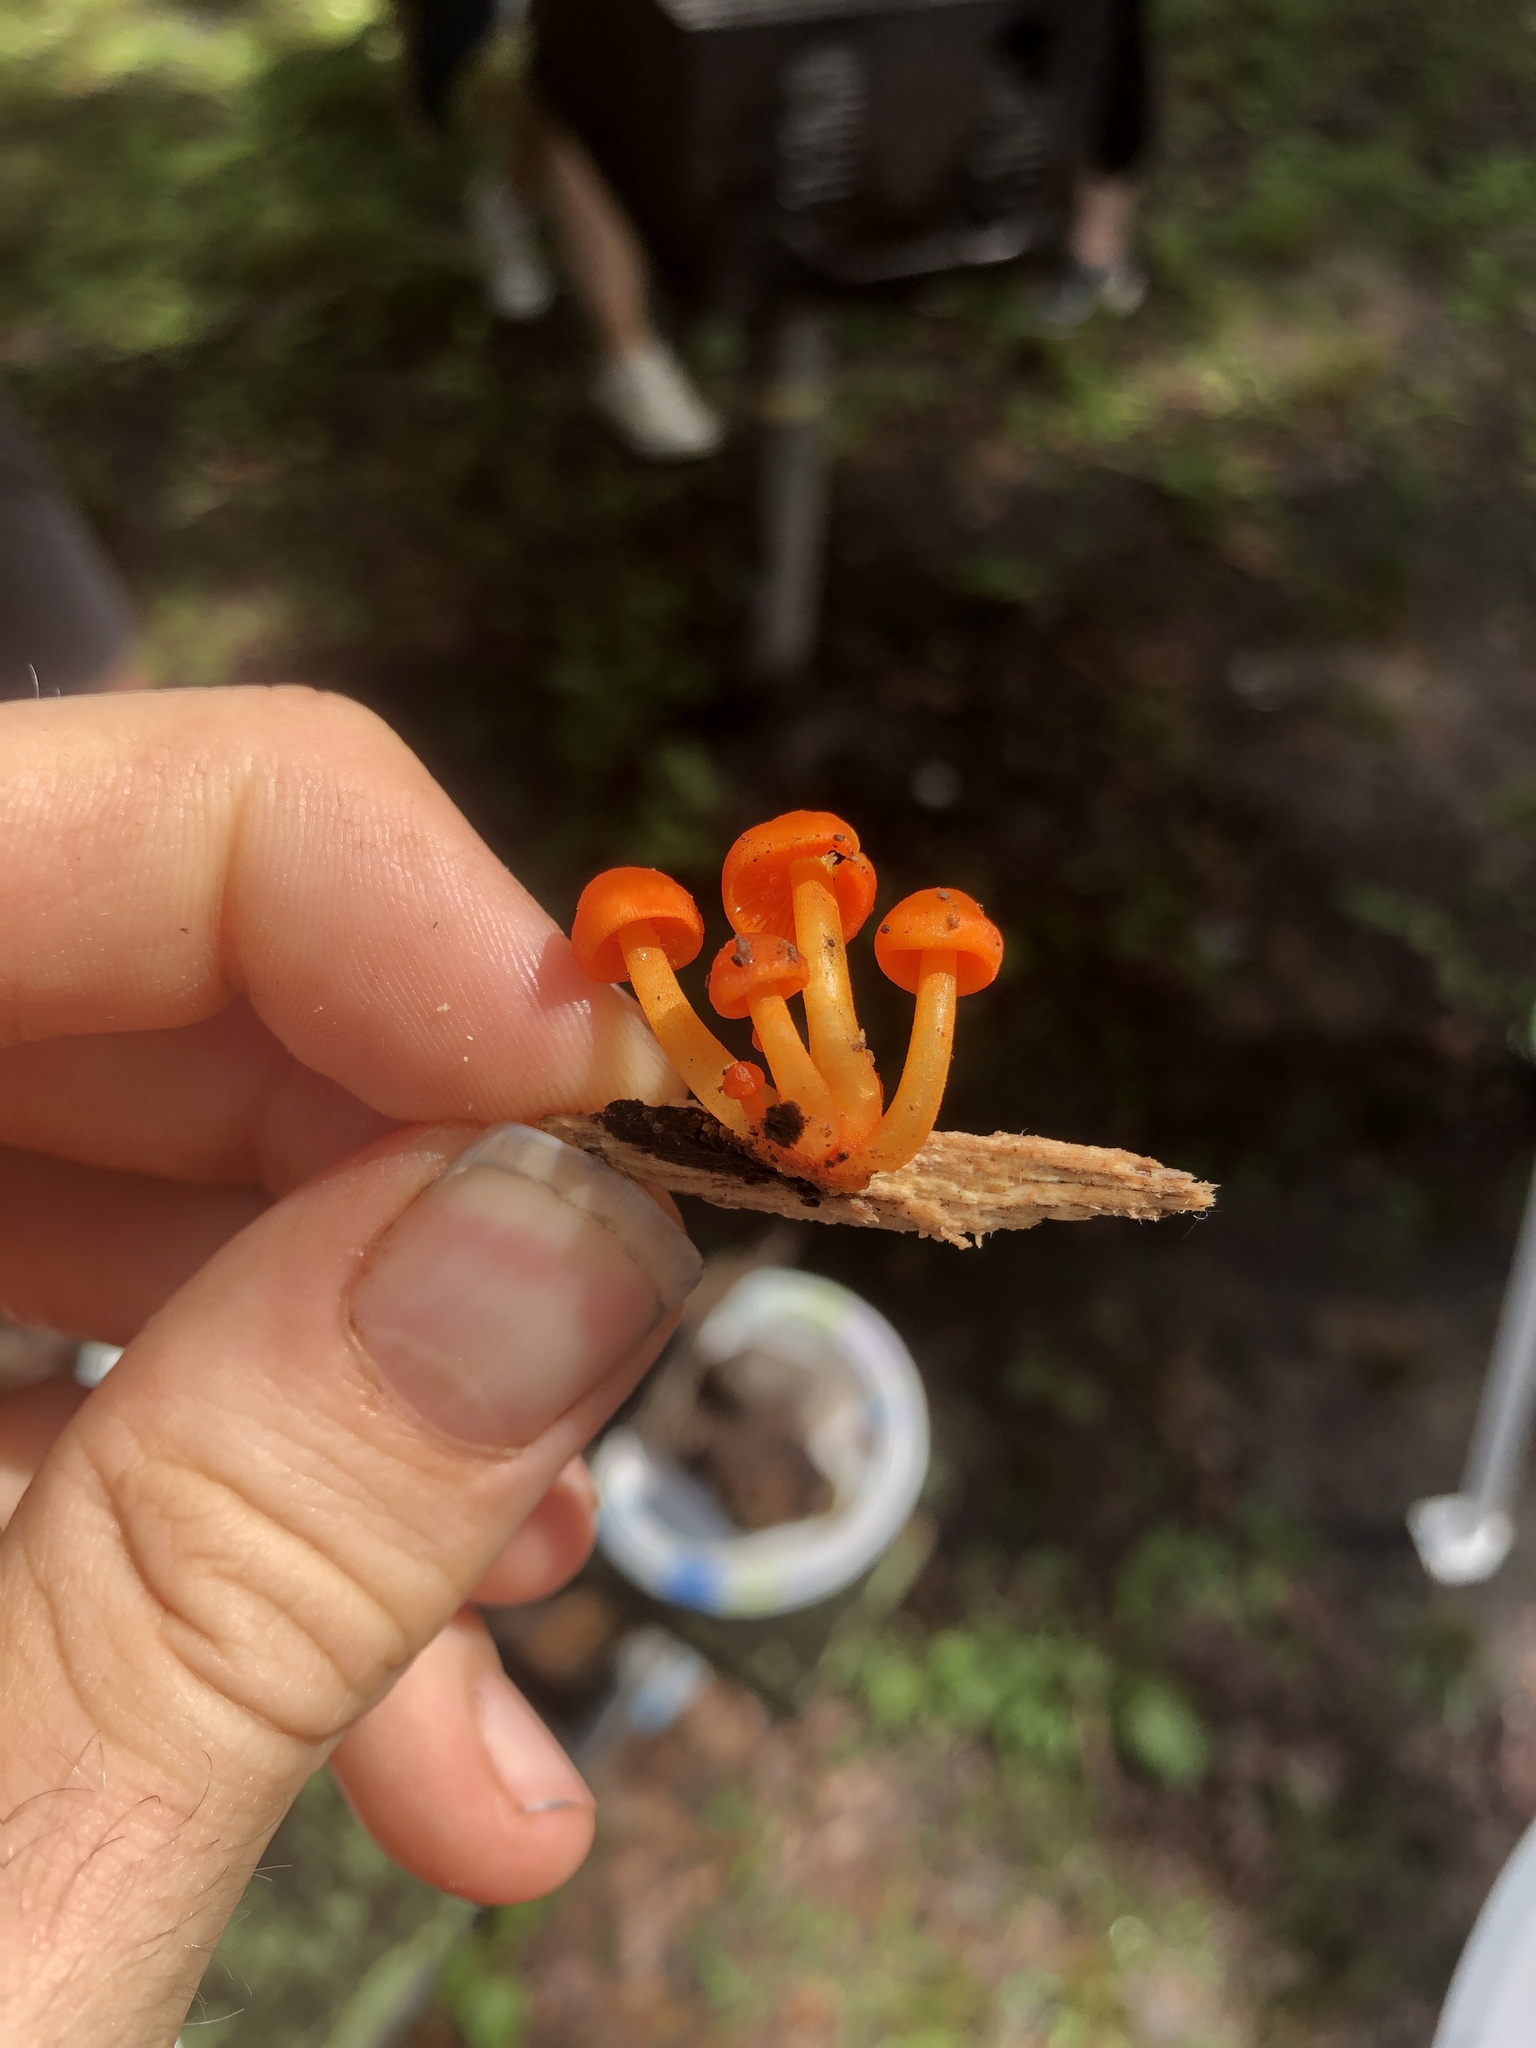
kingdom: Fungi
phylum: Basidiomycota
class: Agaricomycetes
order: Agaricales
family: Mycenaceae
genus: Mycena
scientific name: Mycena leaiana
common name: Orange mycena
